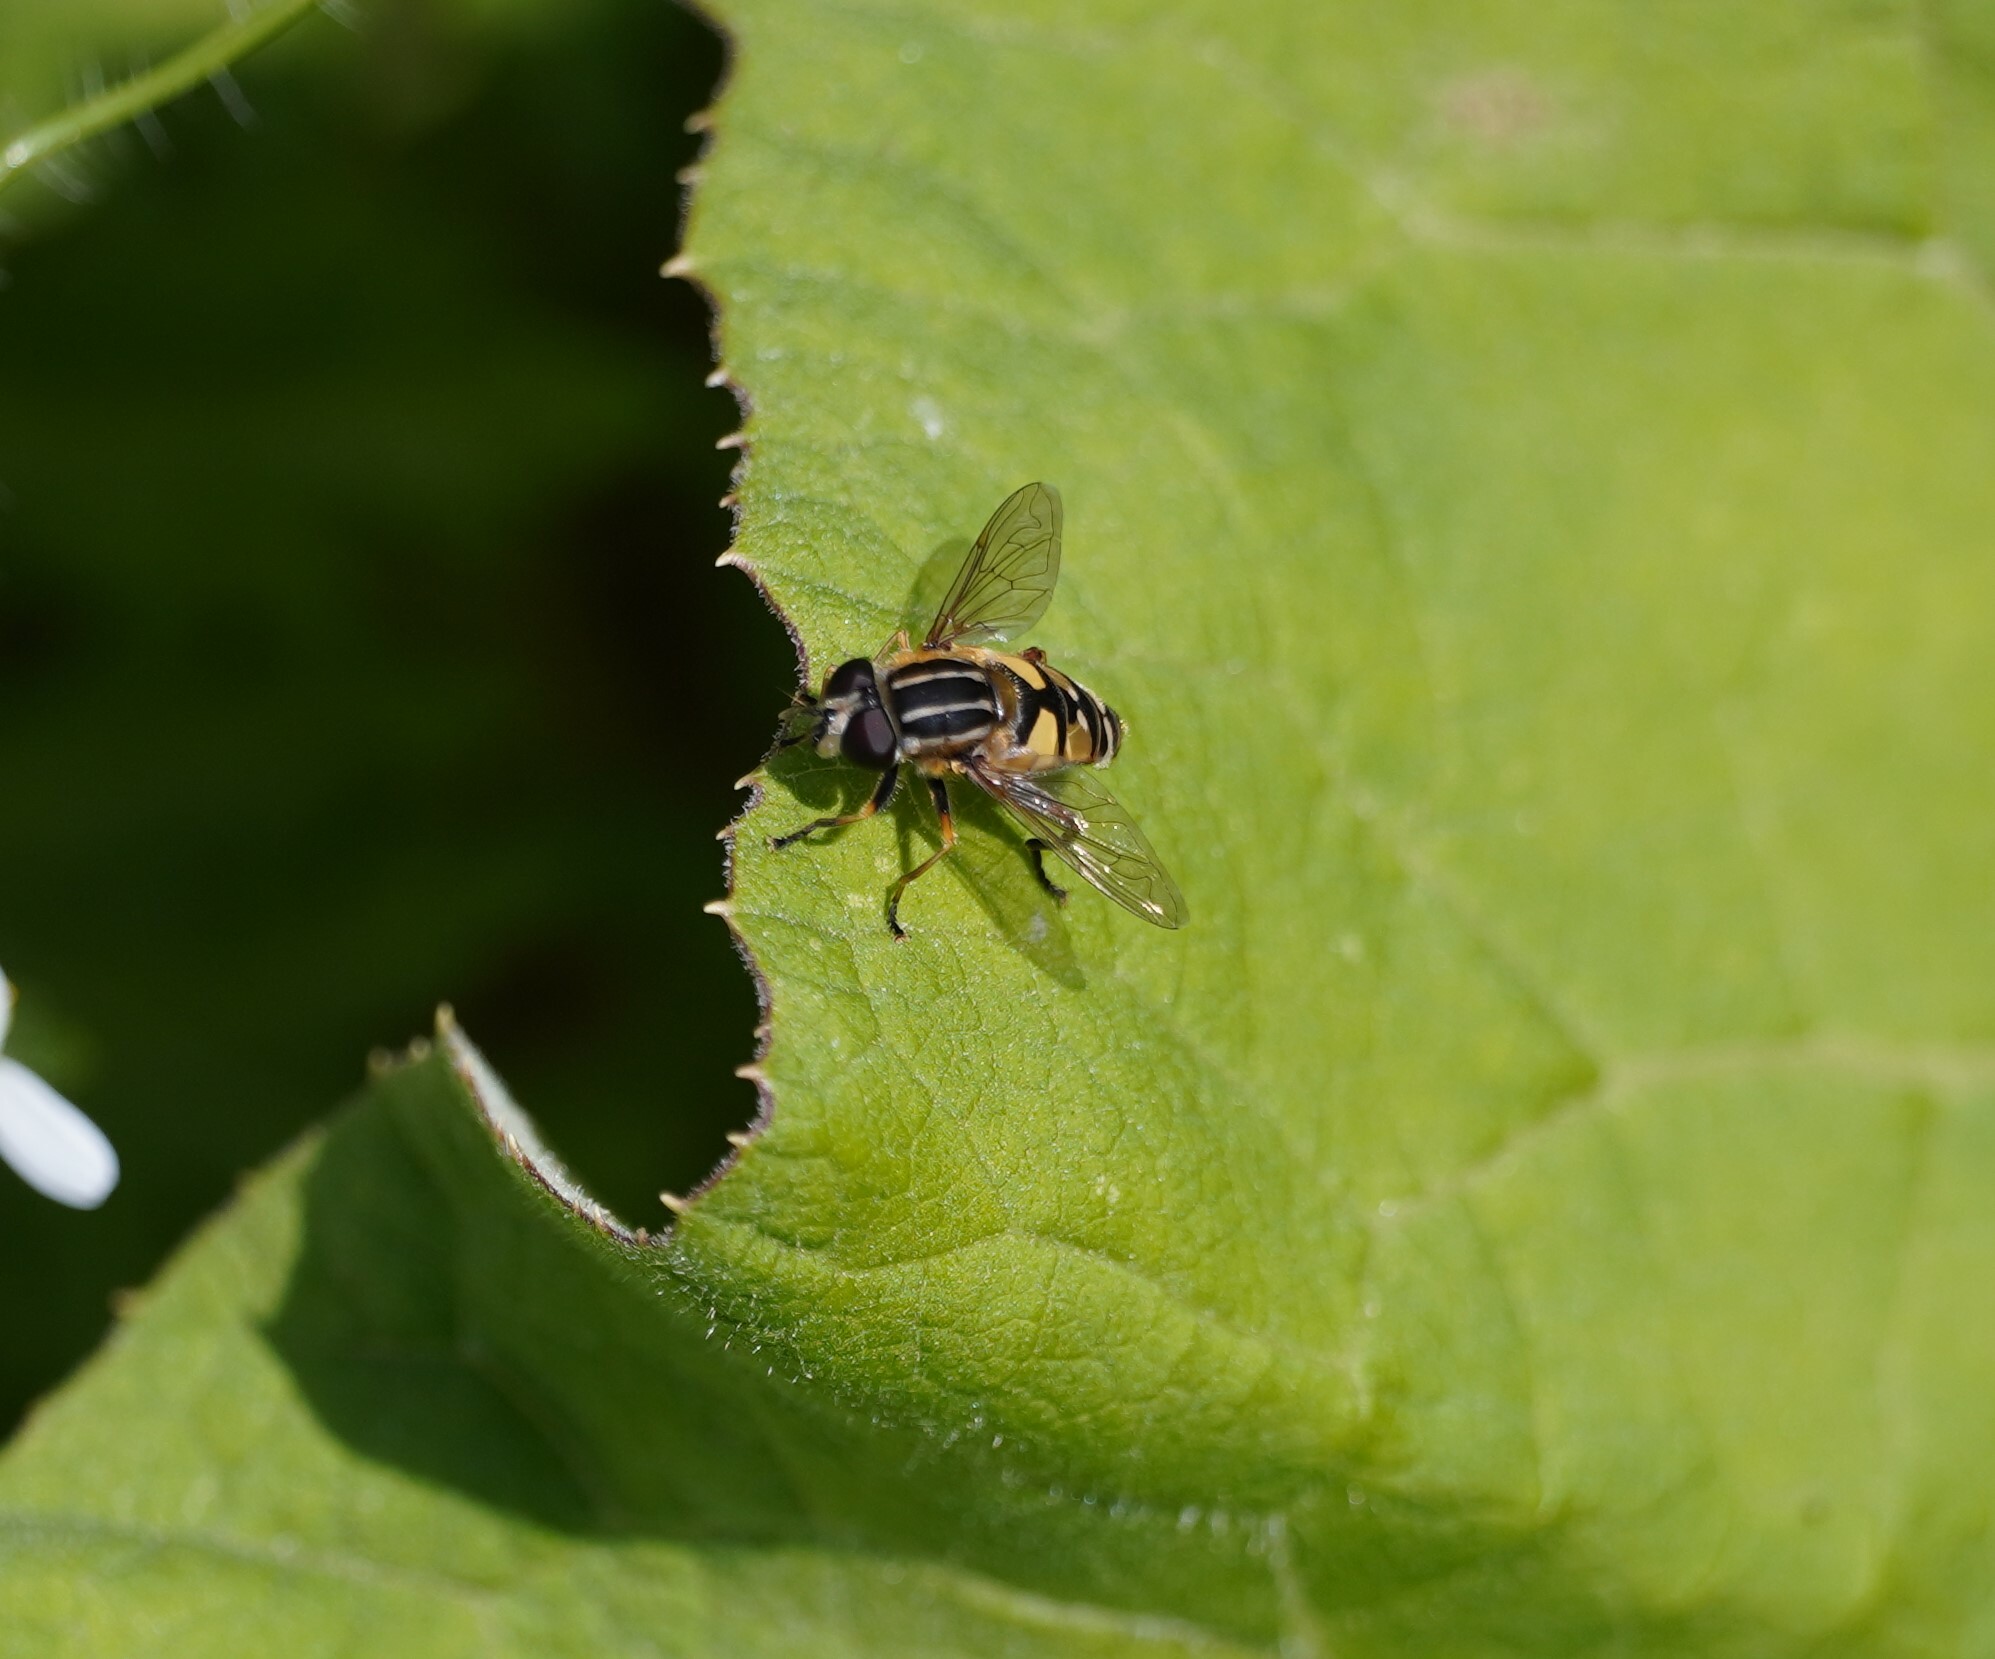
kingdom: Animalia
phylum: Arthropoda
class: Insecta
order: Diptera
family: Syrphidae
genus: Helophilus
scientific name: Helophilus pendulus
